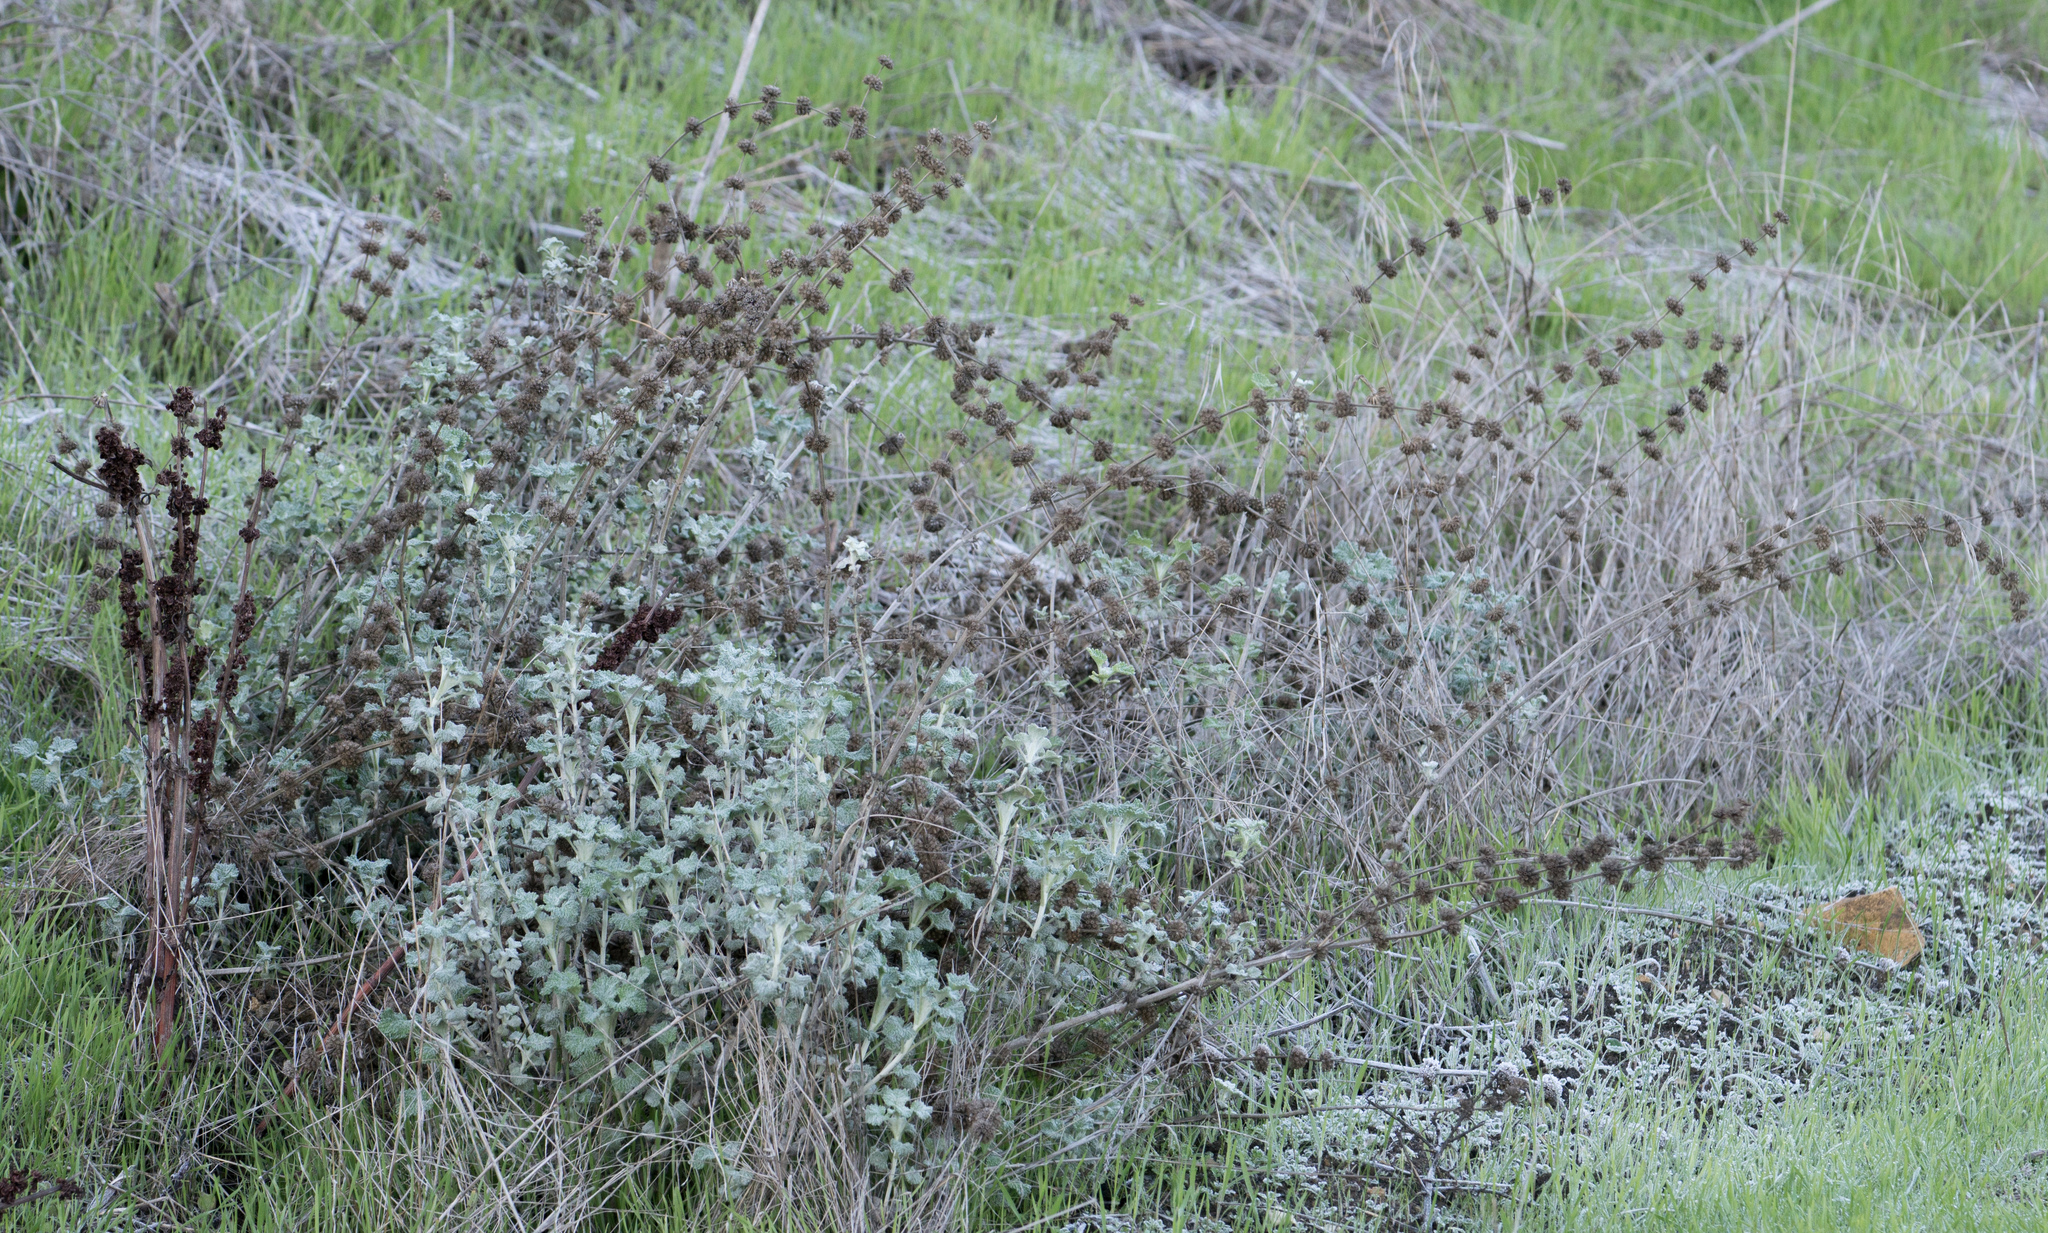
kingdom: Plantae
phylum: Tracheophyta
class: Magnoliopsida
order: Lamiales
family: Lamiaceae
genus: Marrubium
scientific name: Marrubium vulgare
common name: Horehound
